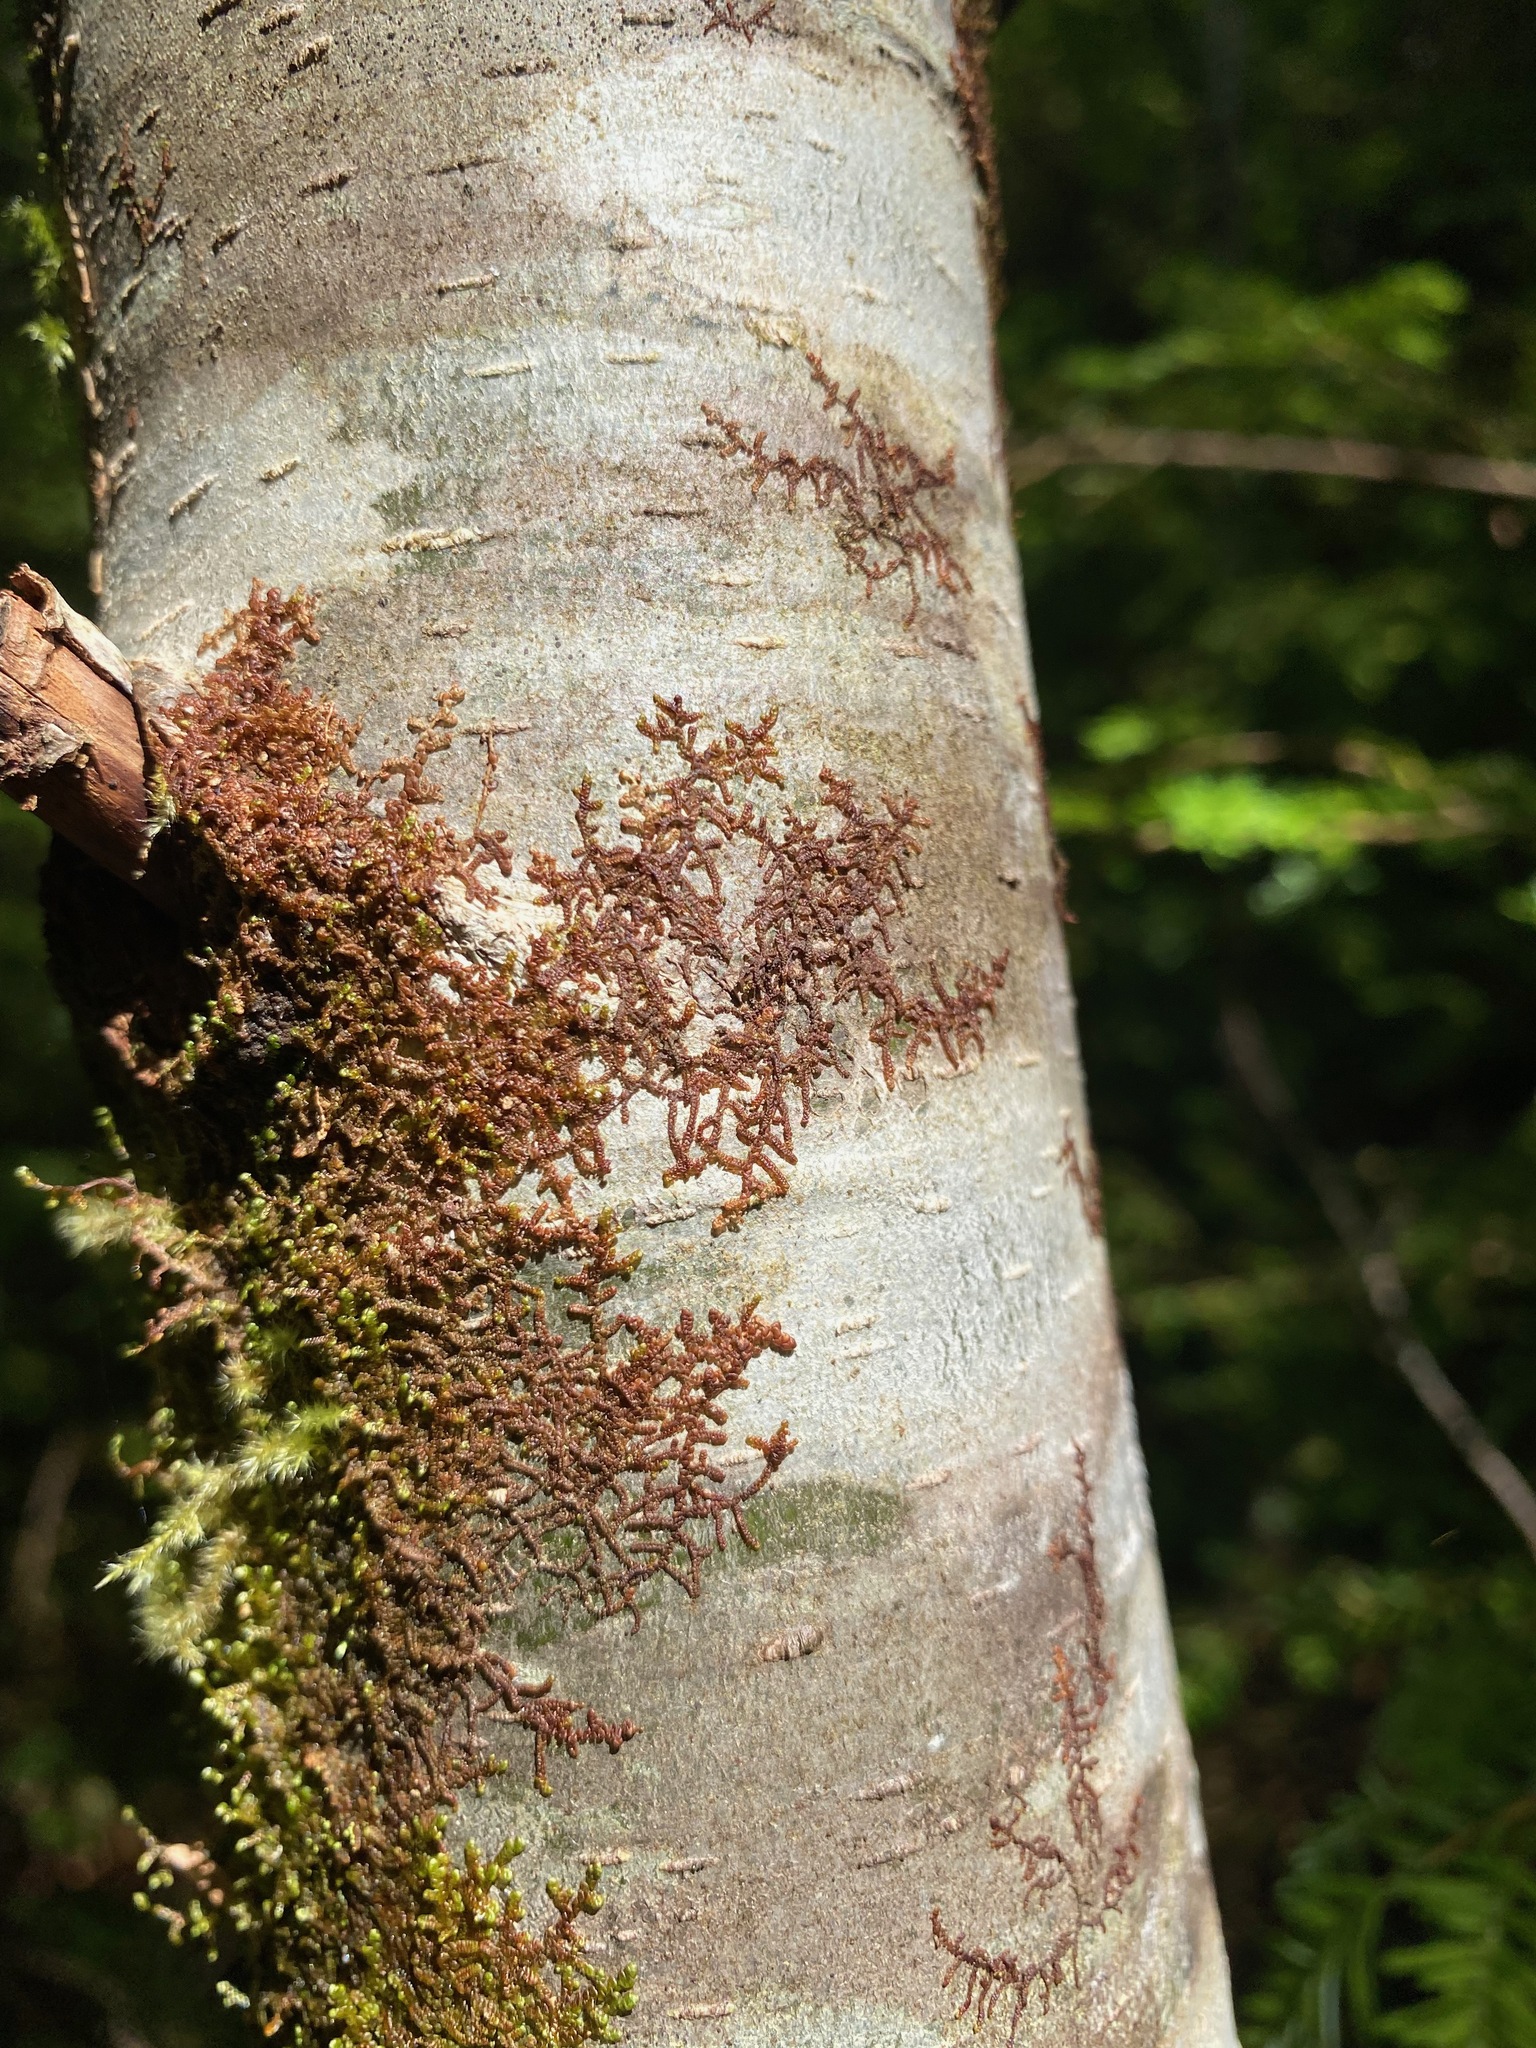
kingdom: Plantae
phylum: Marchantiophyta
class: Jungermanniopsida
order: Porellales
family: Frullaniaceae
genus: Frullania
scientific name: Frullania nisquallensis
